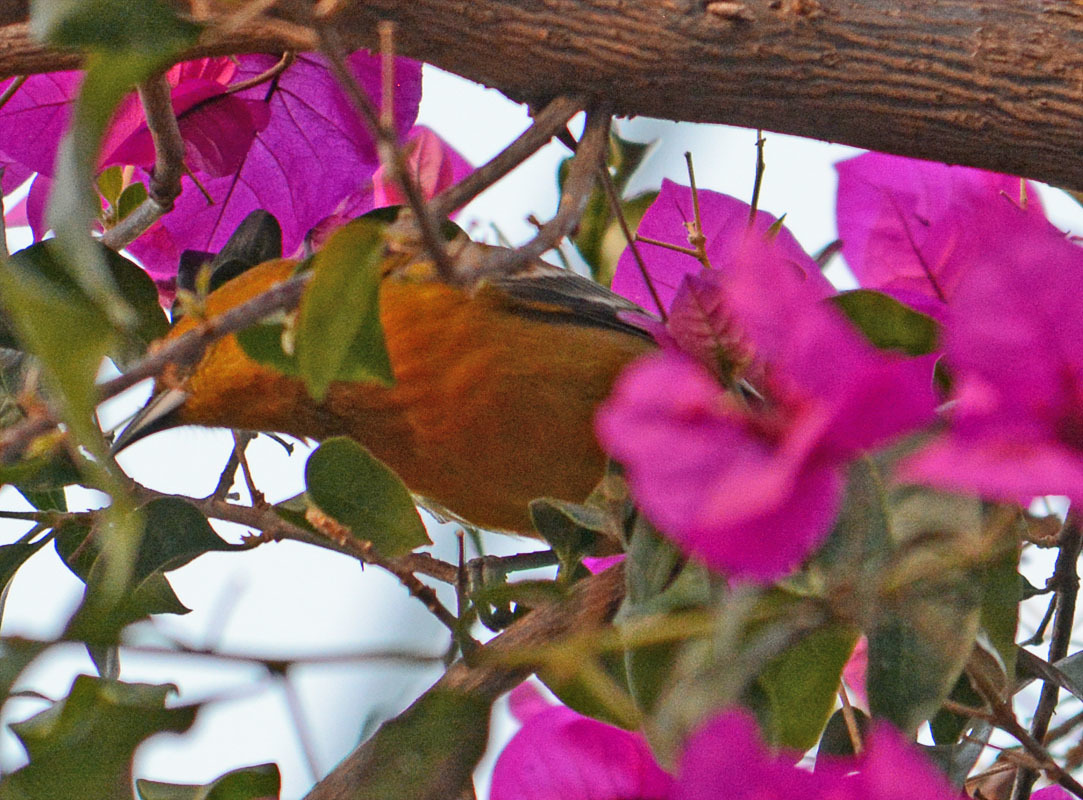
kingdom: Animalia
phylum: Chordata
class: Aves
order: Passeriformes
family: Icteridae
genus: Icterus
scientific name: Icterus cucullatus
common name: Hooded oriole
